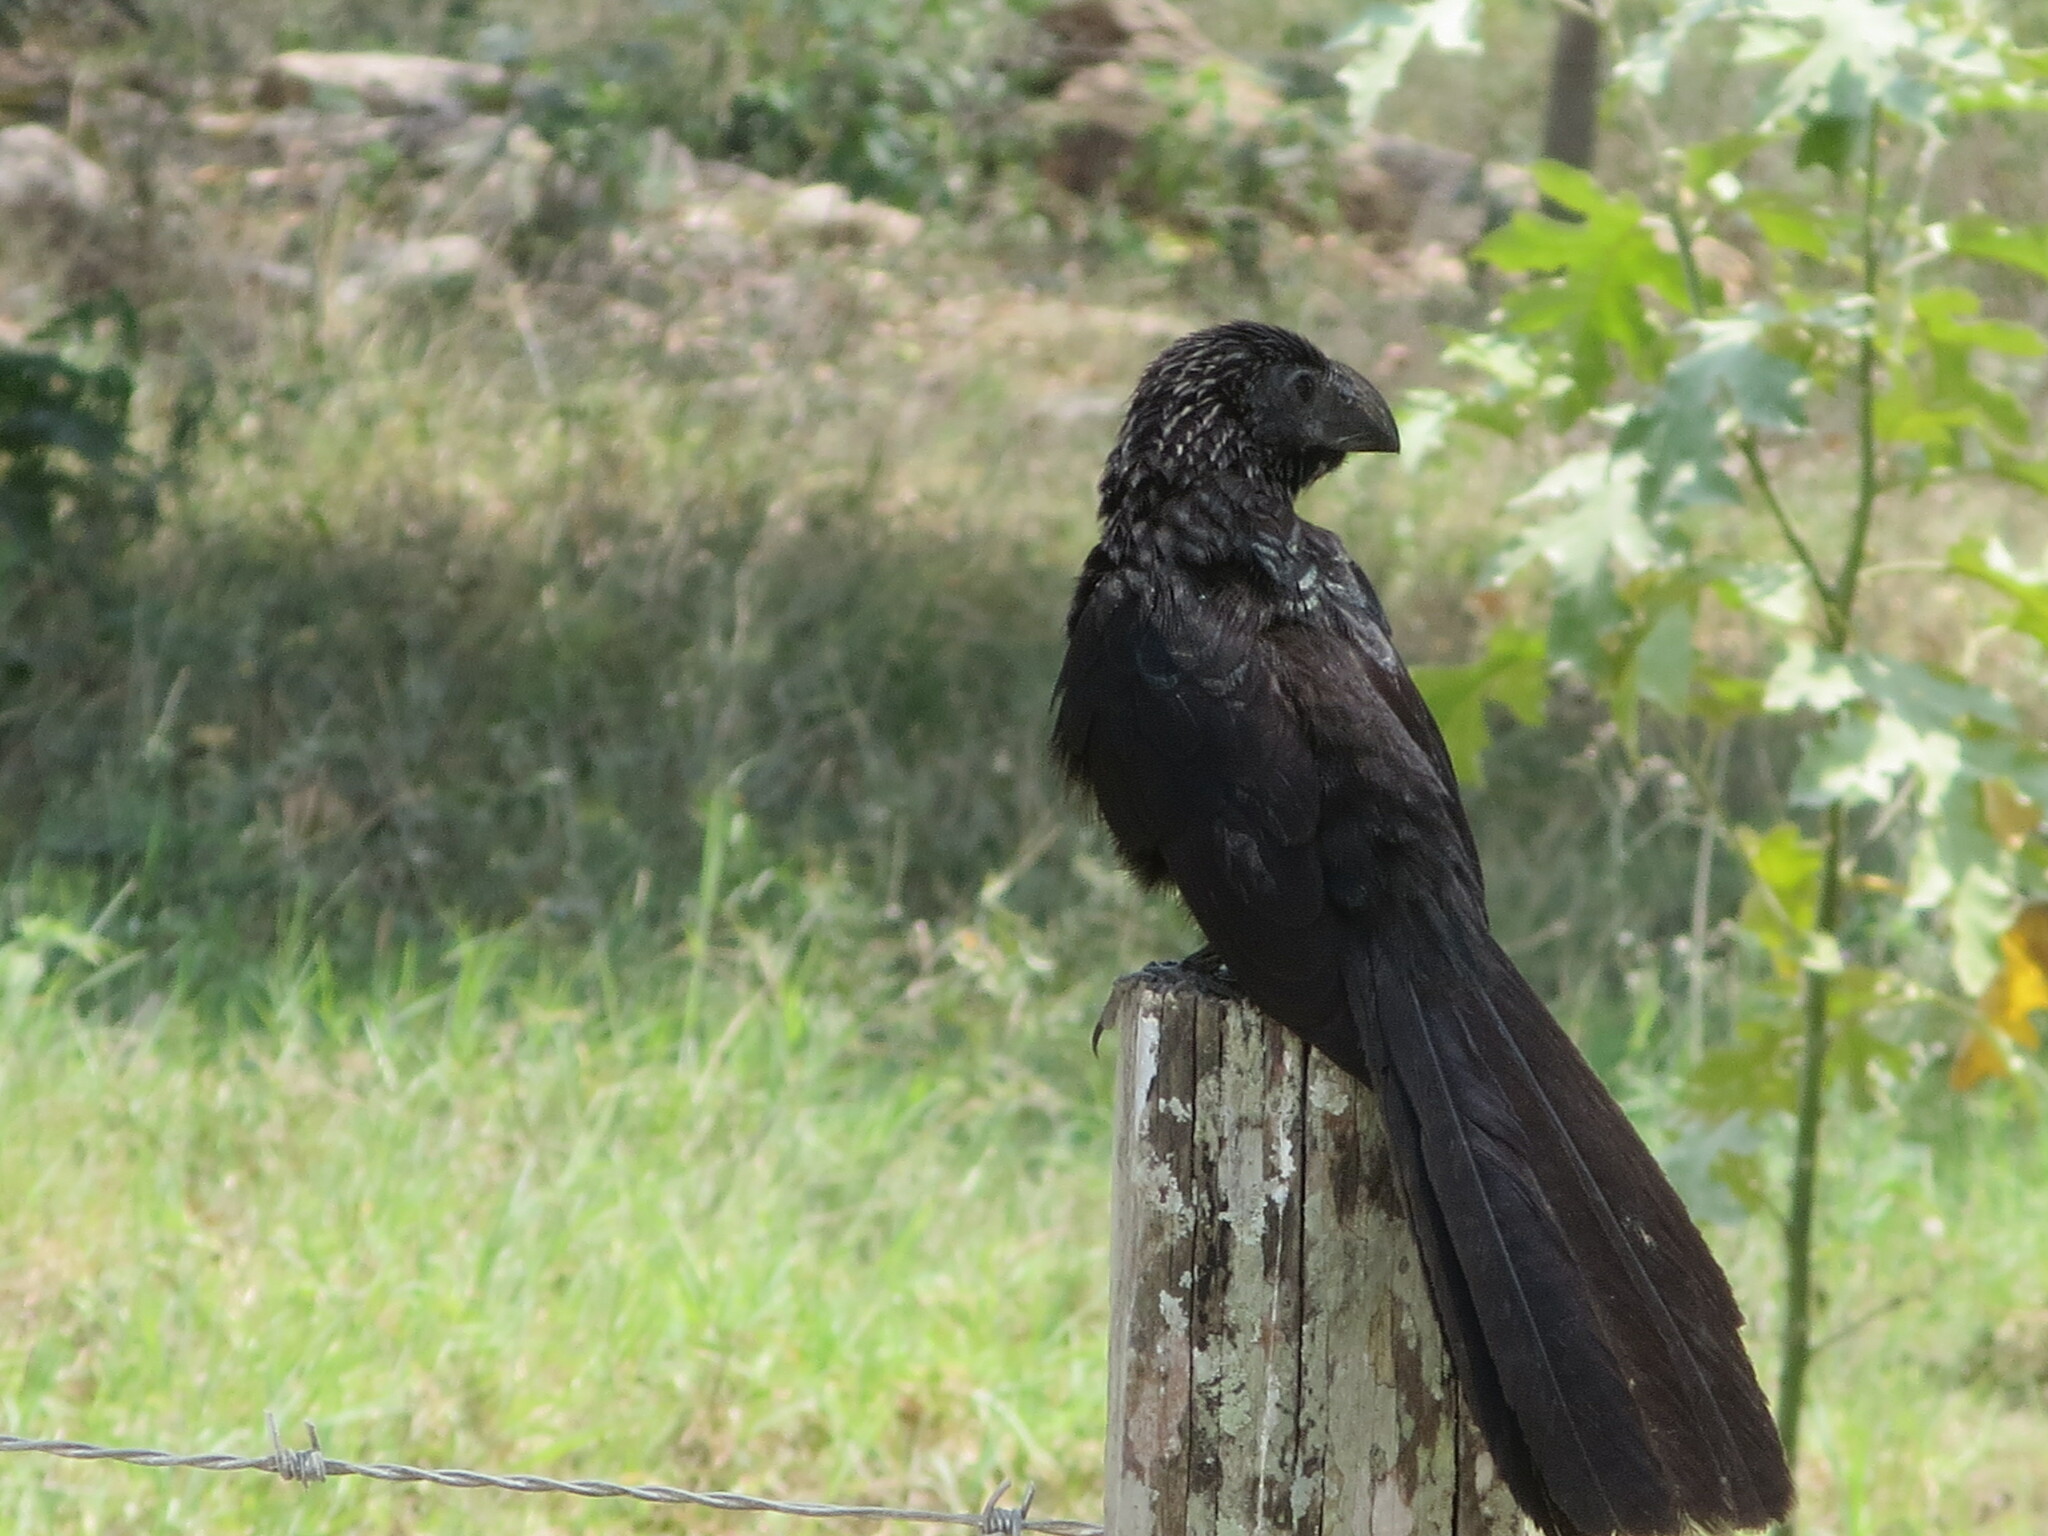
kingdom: Animalia
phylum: Chordata
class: Aves
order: Cuculiformes
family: Cuculidae
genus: Crotophaga
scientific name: Crotophaga sulcirostris
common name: Groove-billed ani
